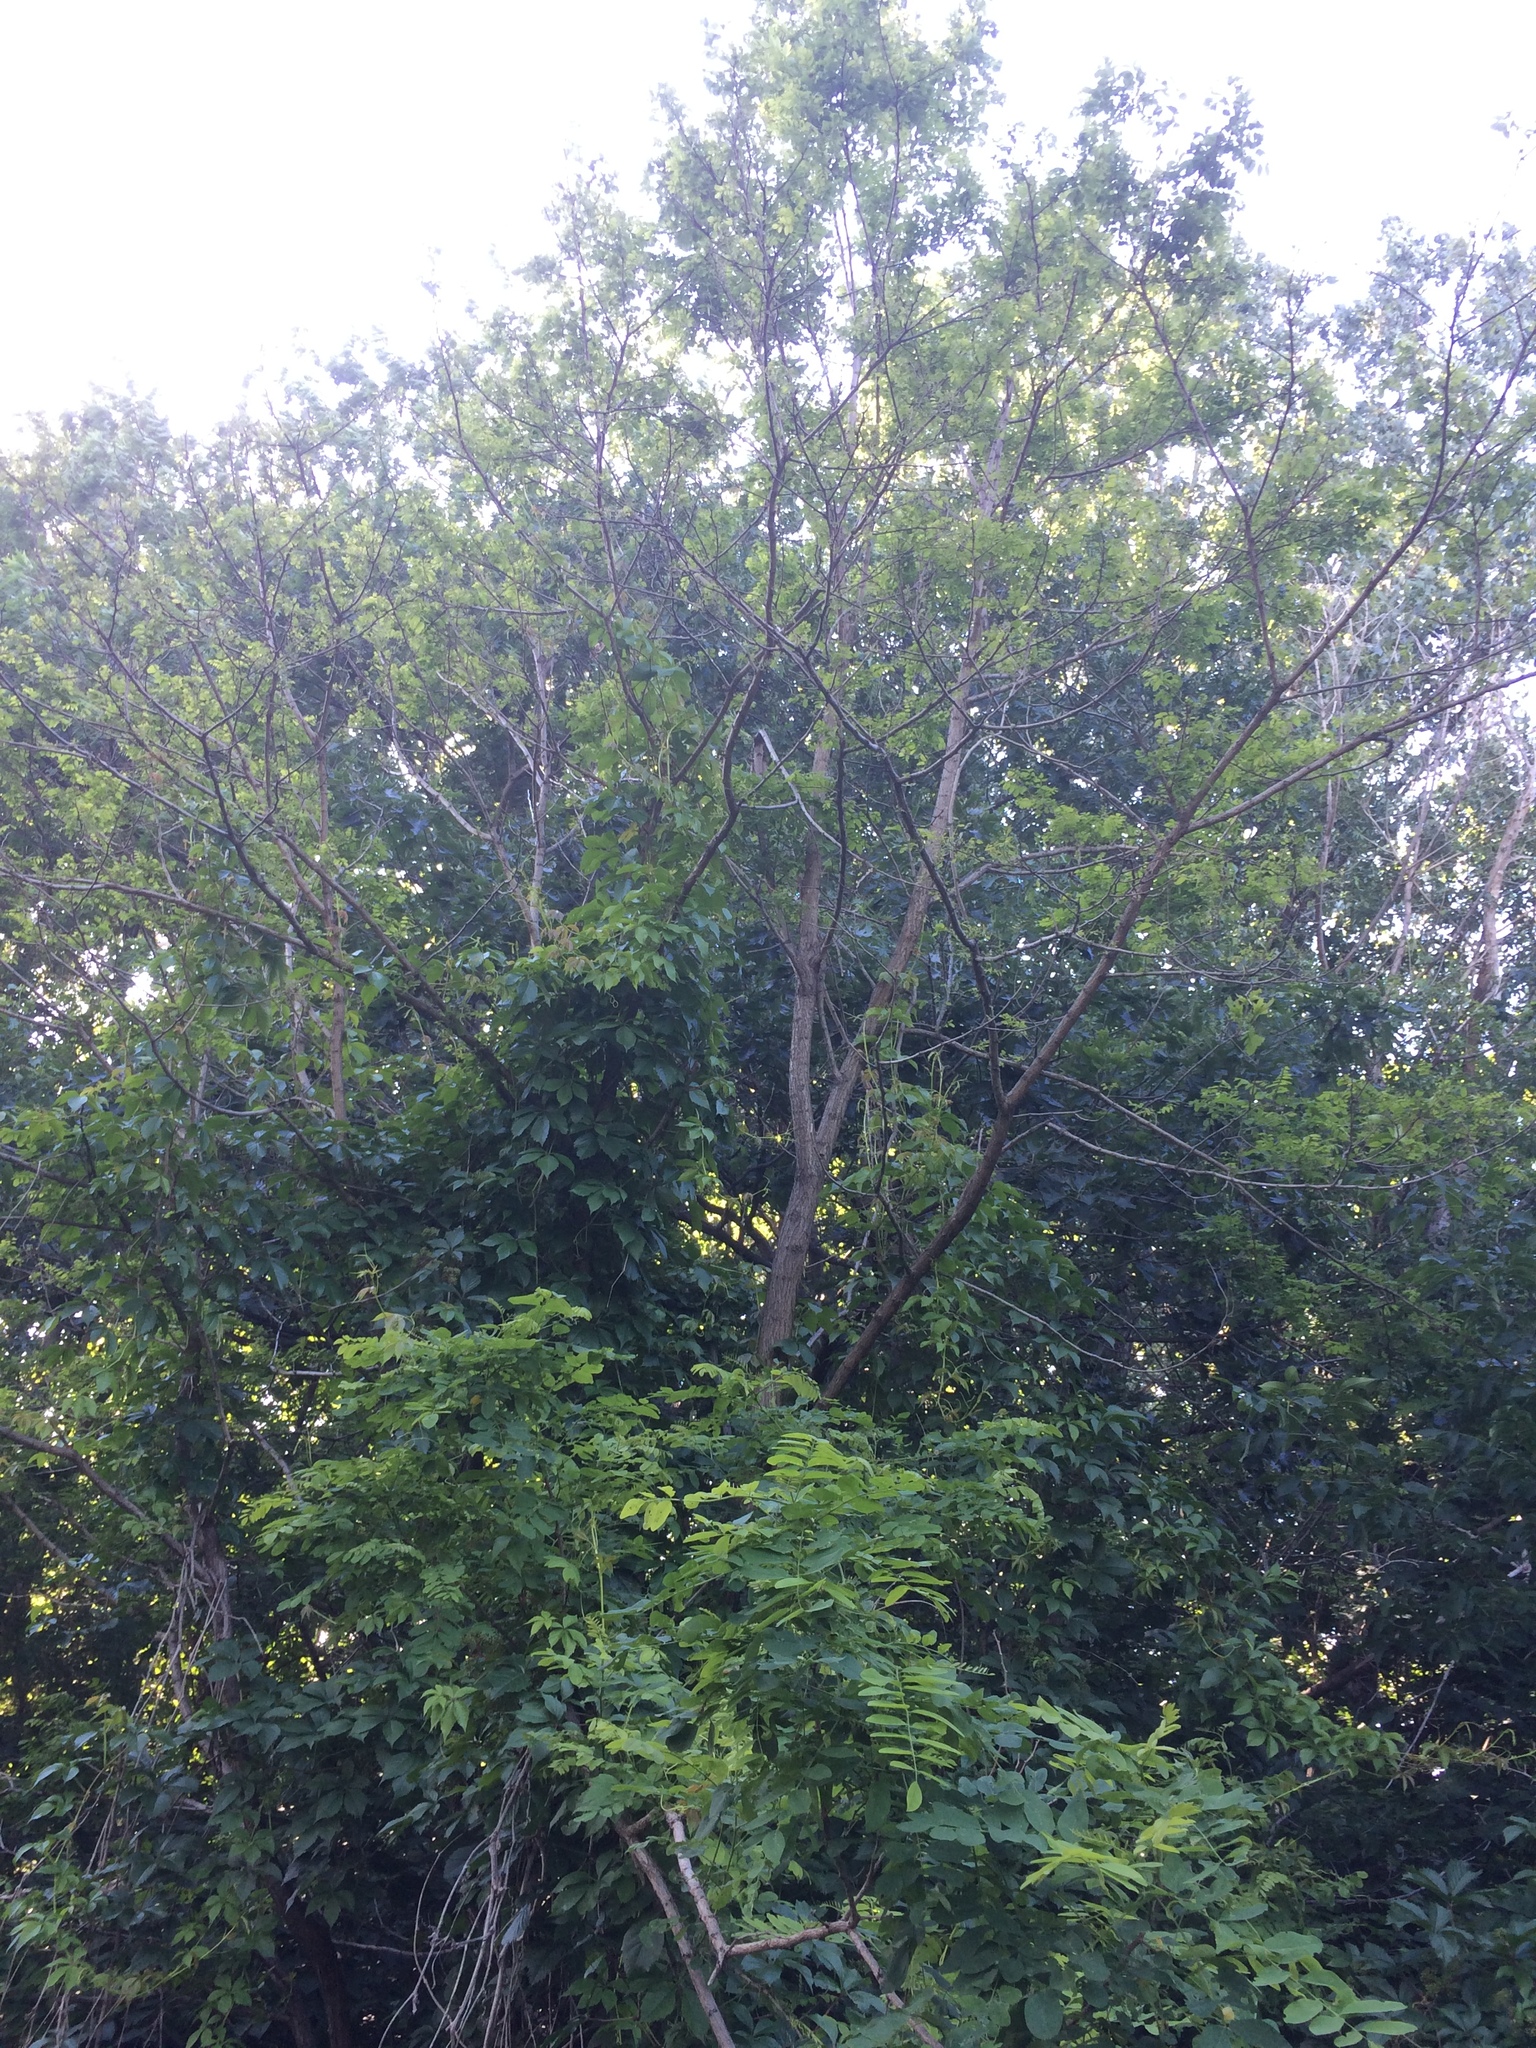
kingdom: Plantae
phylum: Tracheophyta
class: Magnoliopsida
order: Fabales
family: Fabaceae
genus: Robinia
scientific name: Robinia pseudoacacia
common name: Black locust
